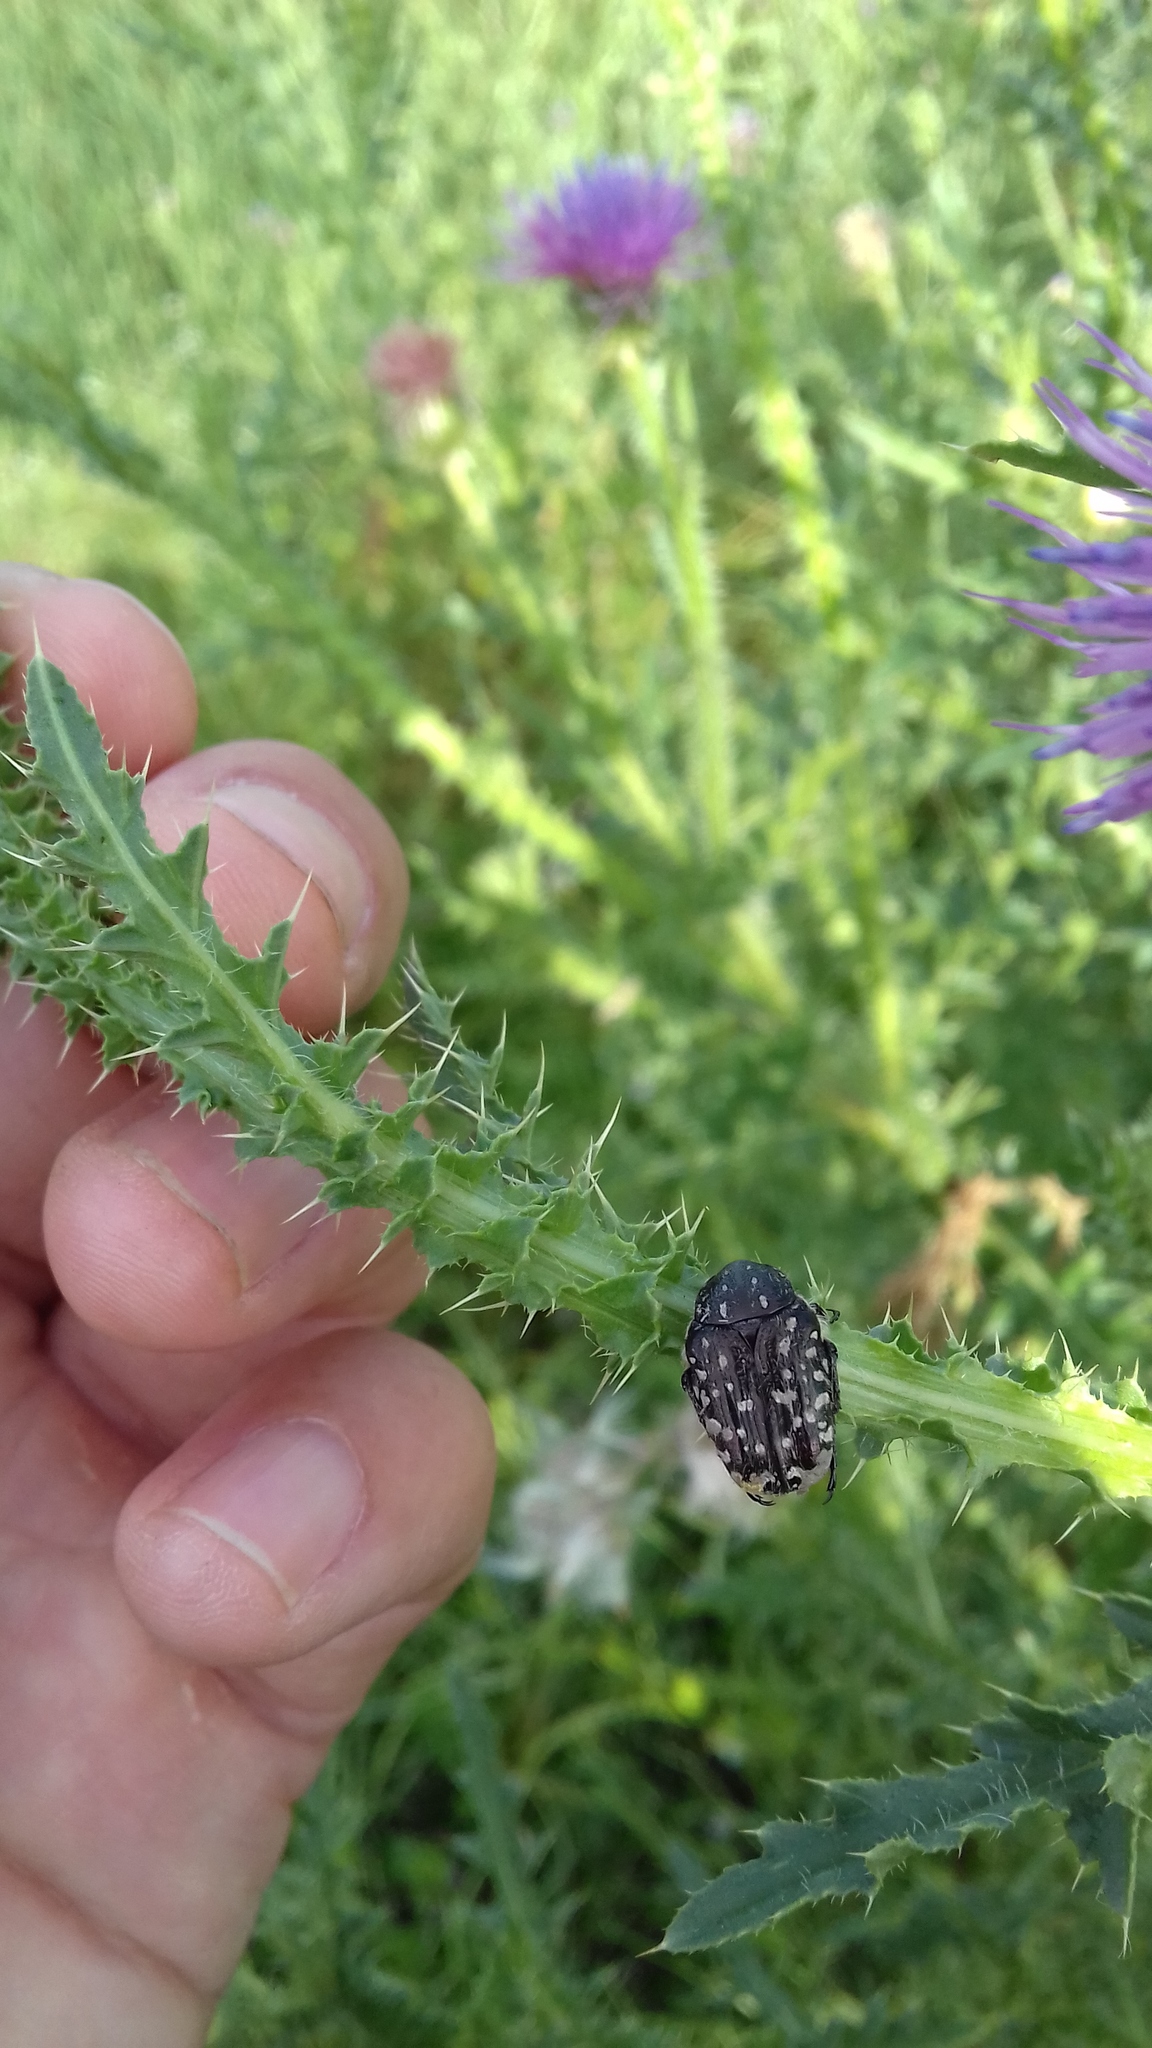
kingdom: Animalia
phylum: Arthropoda
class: Insecta
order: Coleoptera
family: Scarabaeidae
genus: Oxythyrea
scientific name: Oxythyrea funesta
